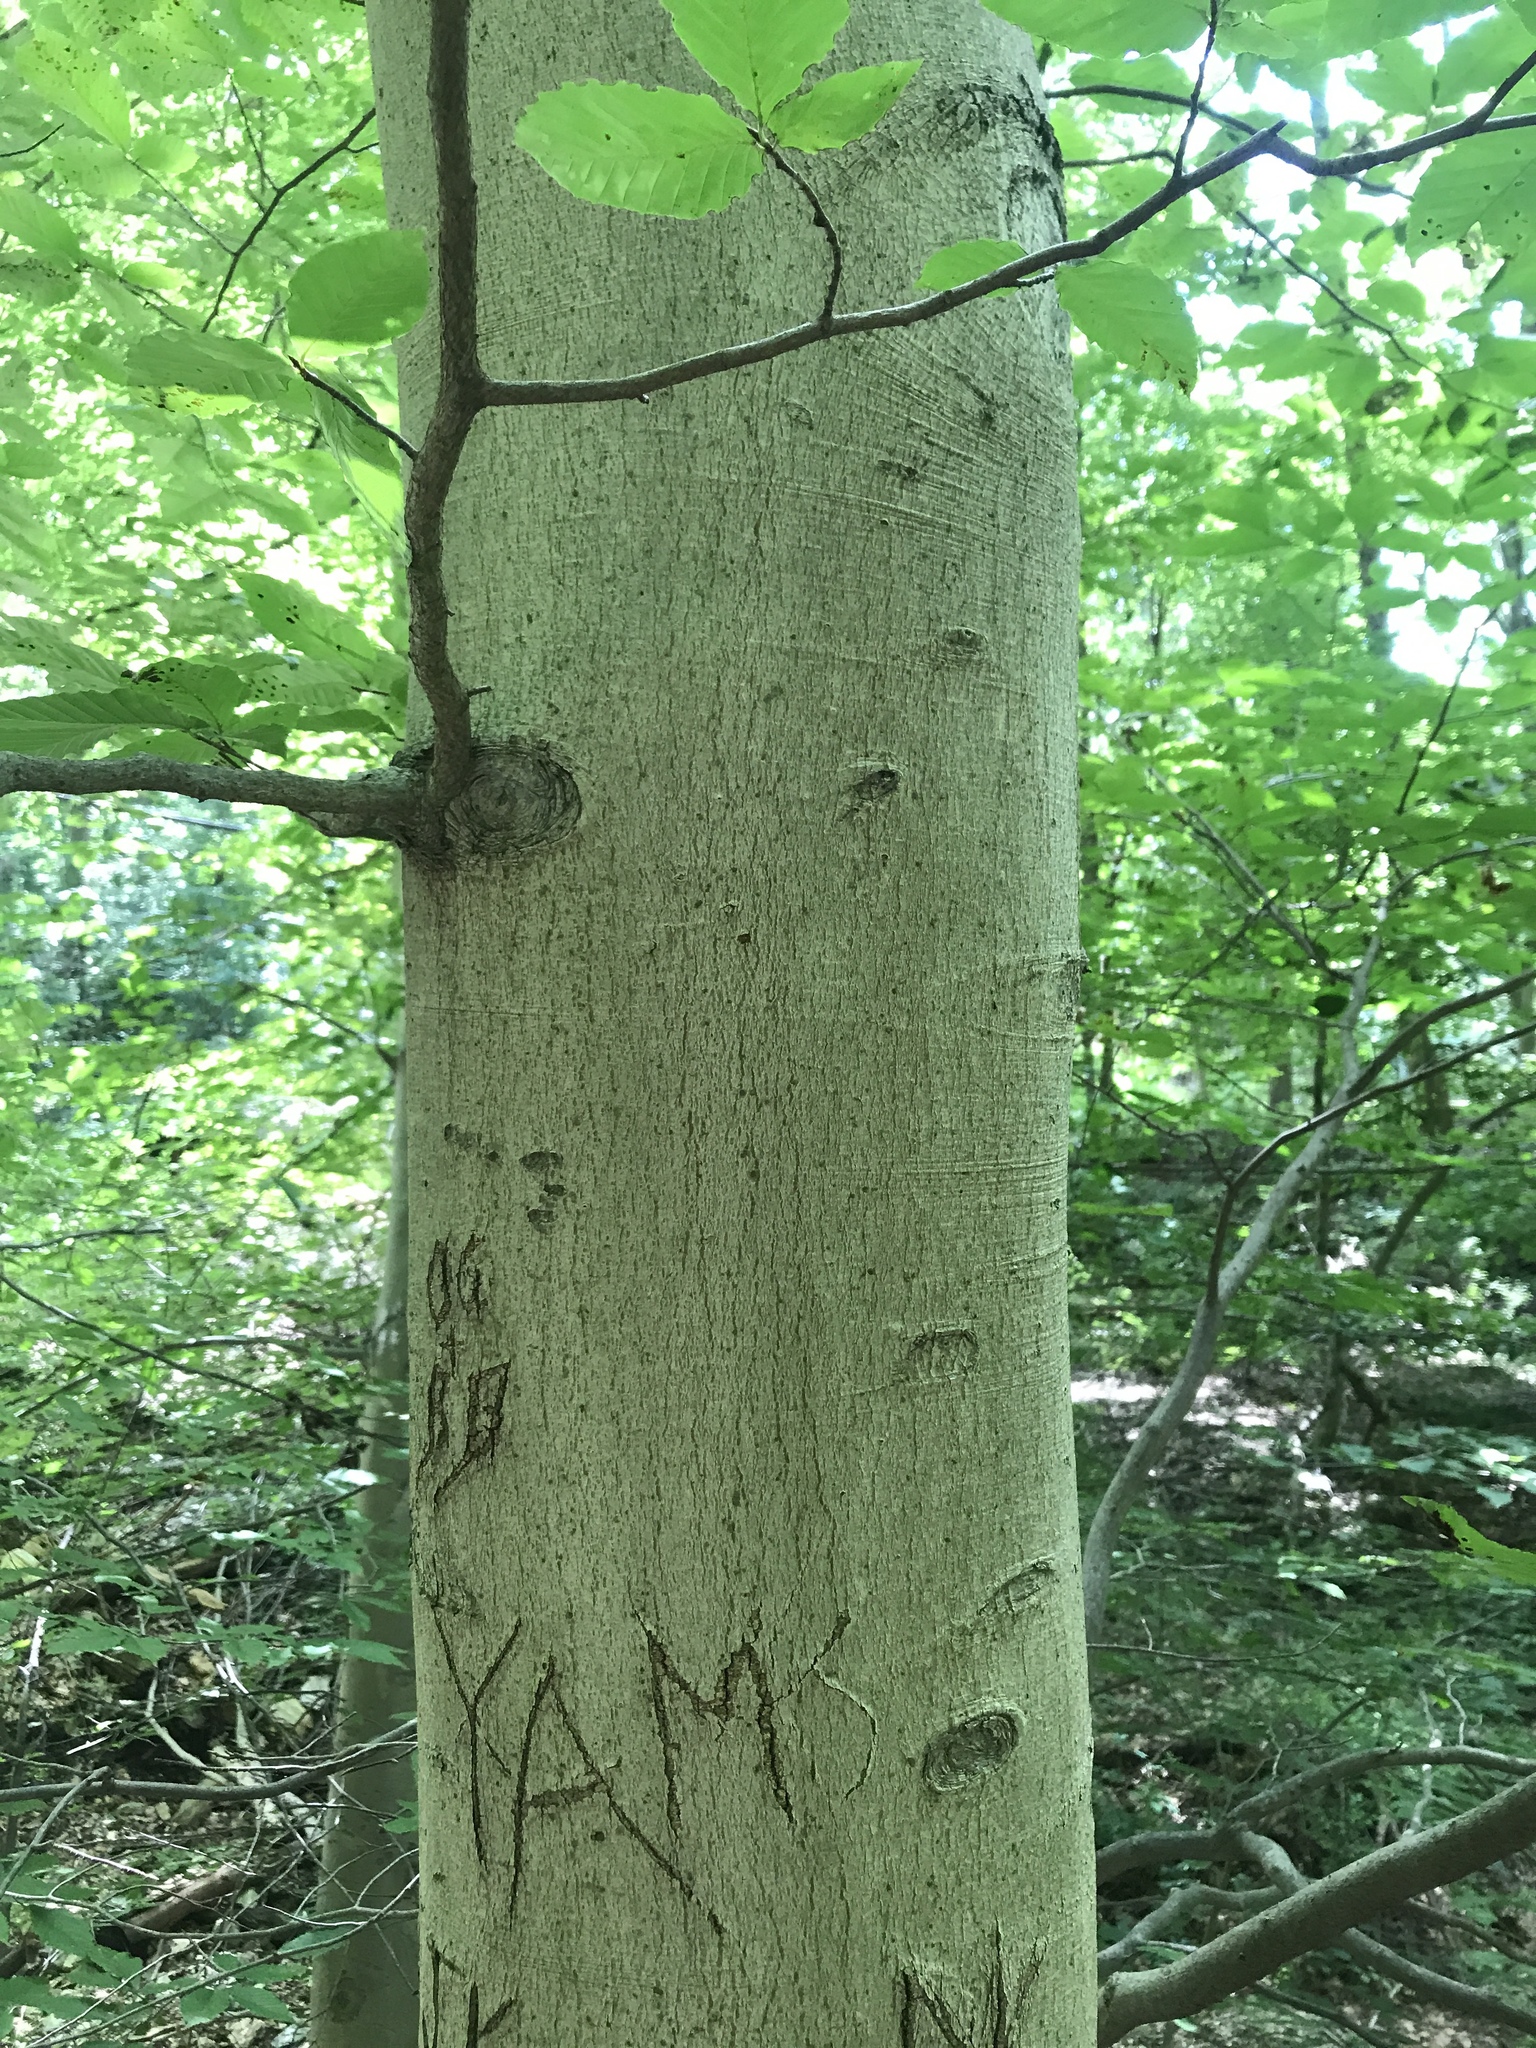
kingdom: Plantae
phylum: Tracheophyta
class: Magnoliopsida
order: Fagales
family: Fagaceae
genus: Fagus
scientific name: Fagus grandifolia
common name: American beech
